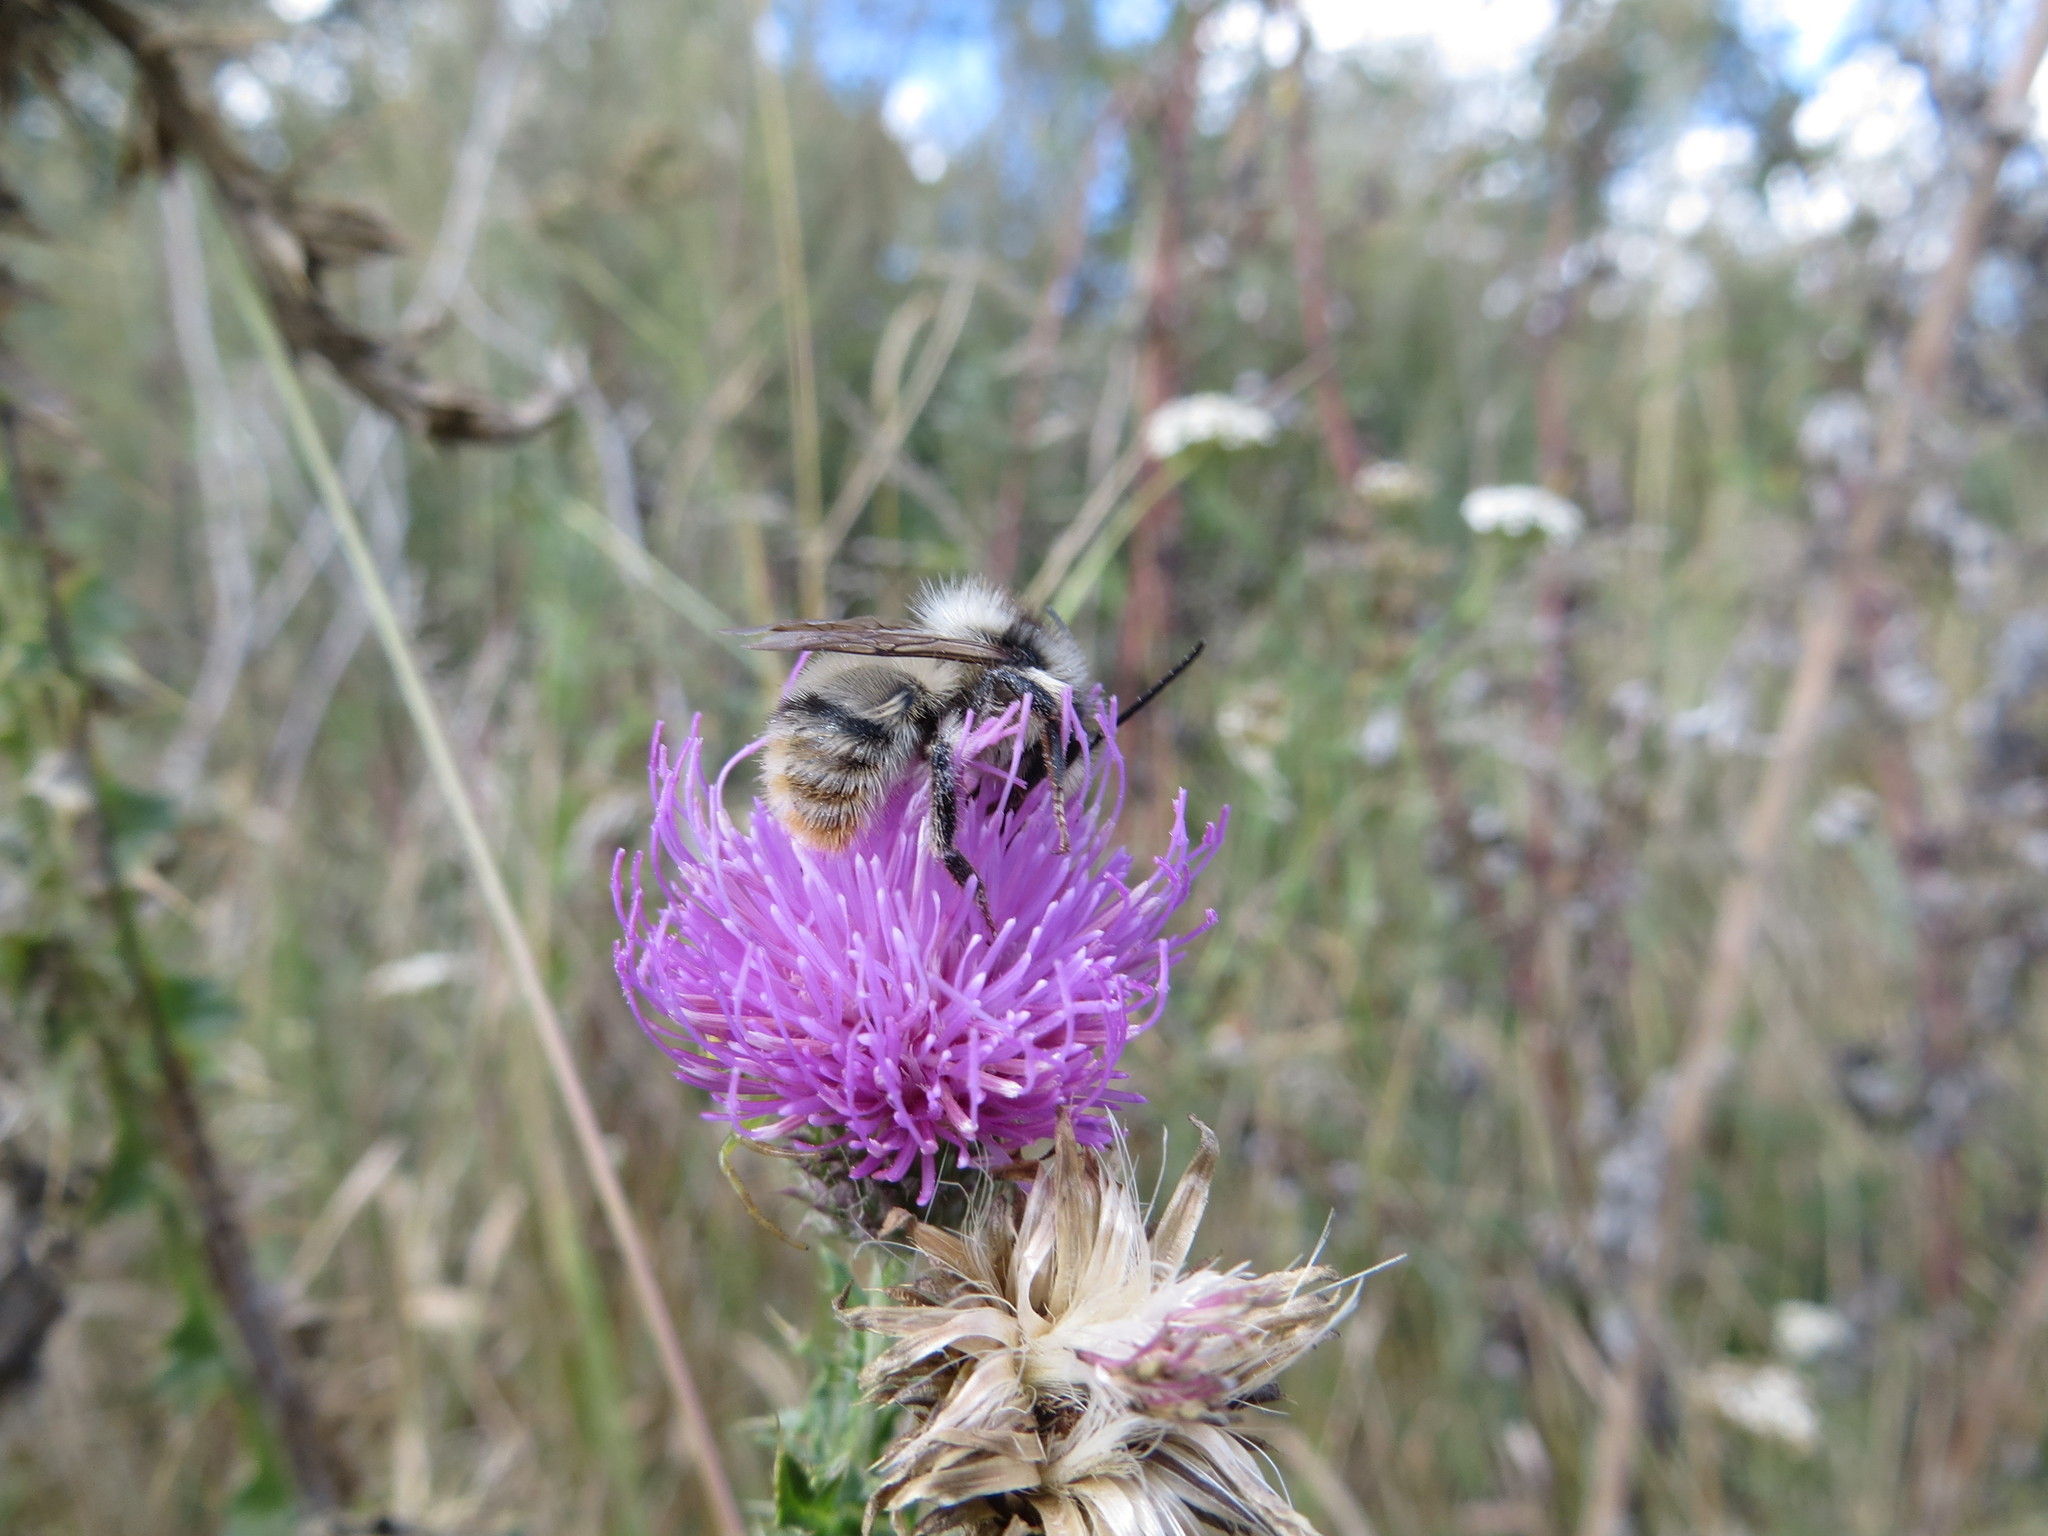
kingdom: Animalia
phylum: Arthropoda
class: Insecta
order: Hymenoptera
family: Apidae
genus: Bombus
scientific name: Bombus sylvarum
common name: Shrill carder bee
